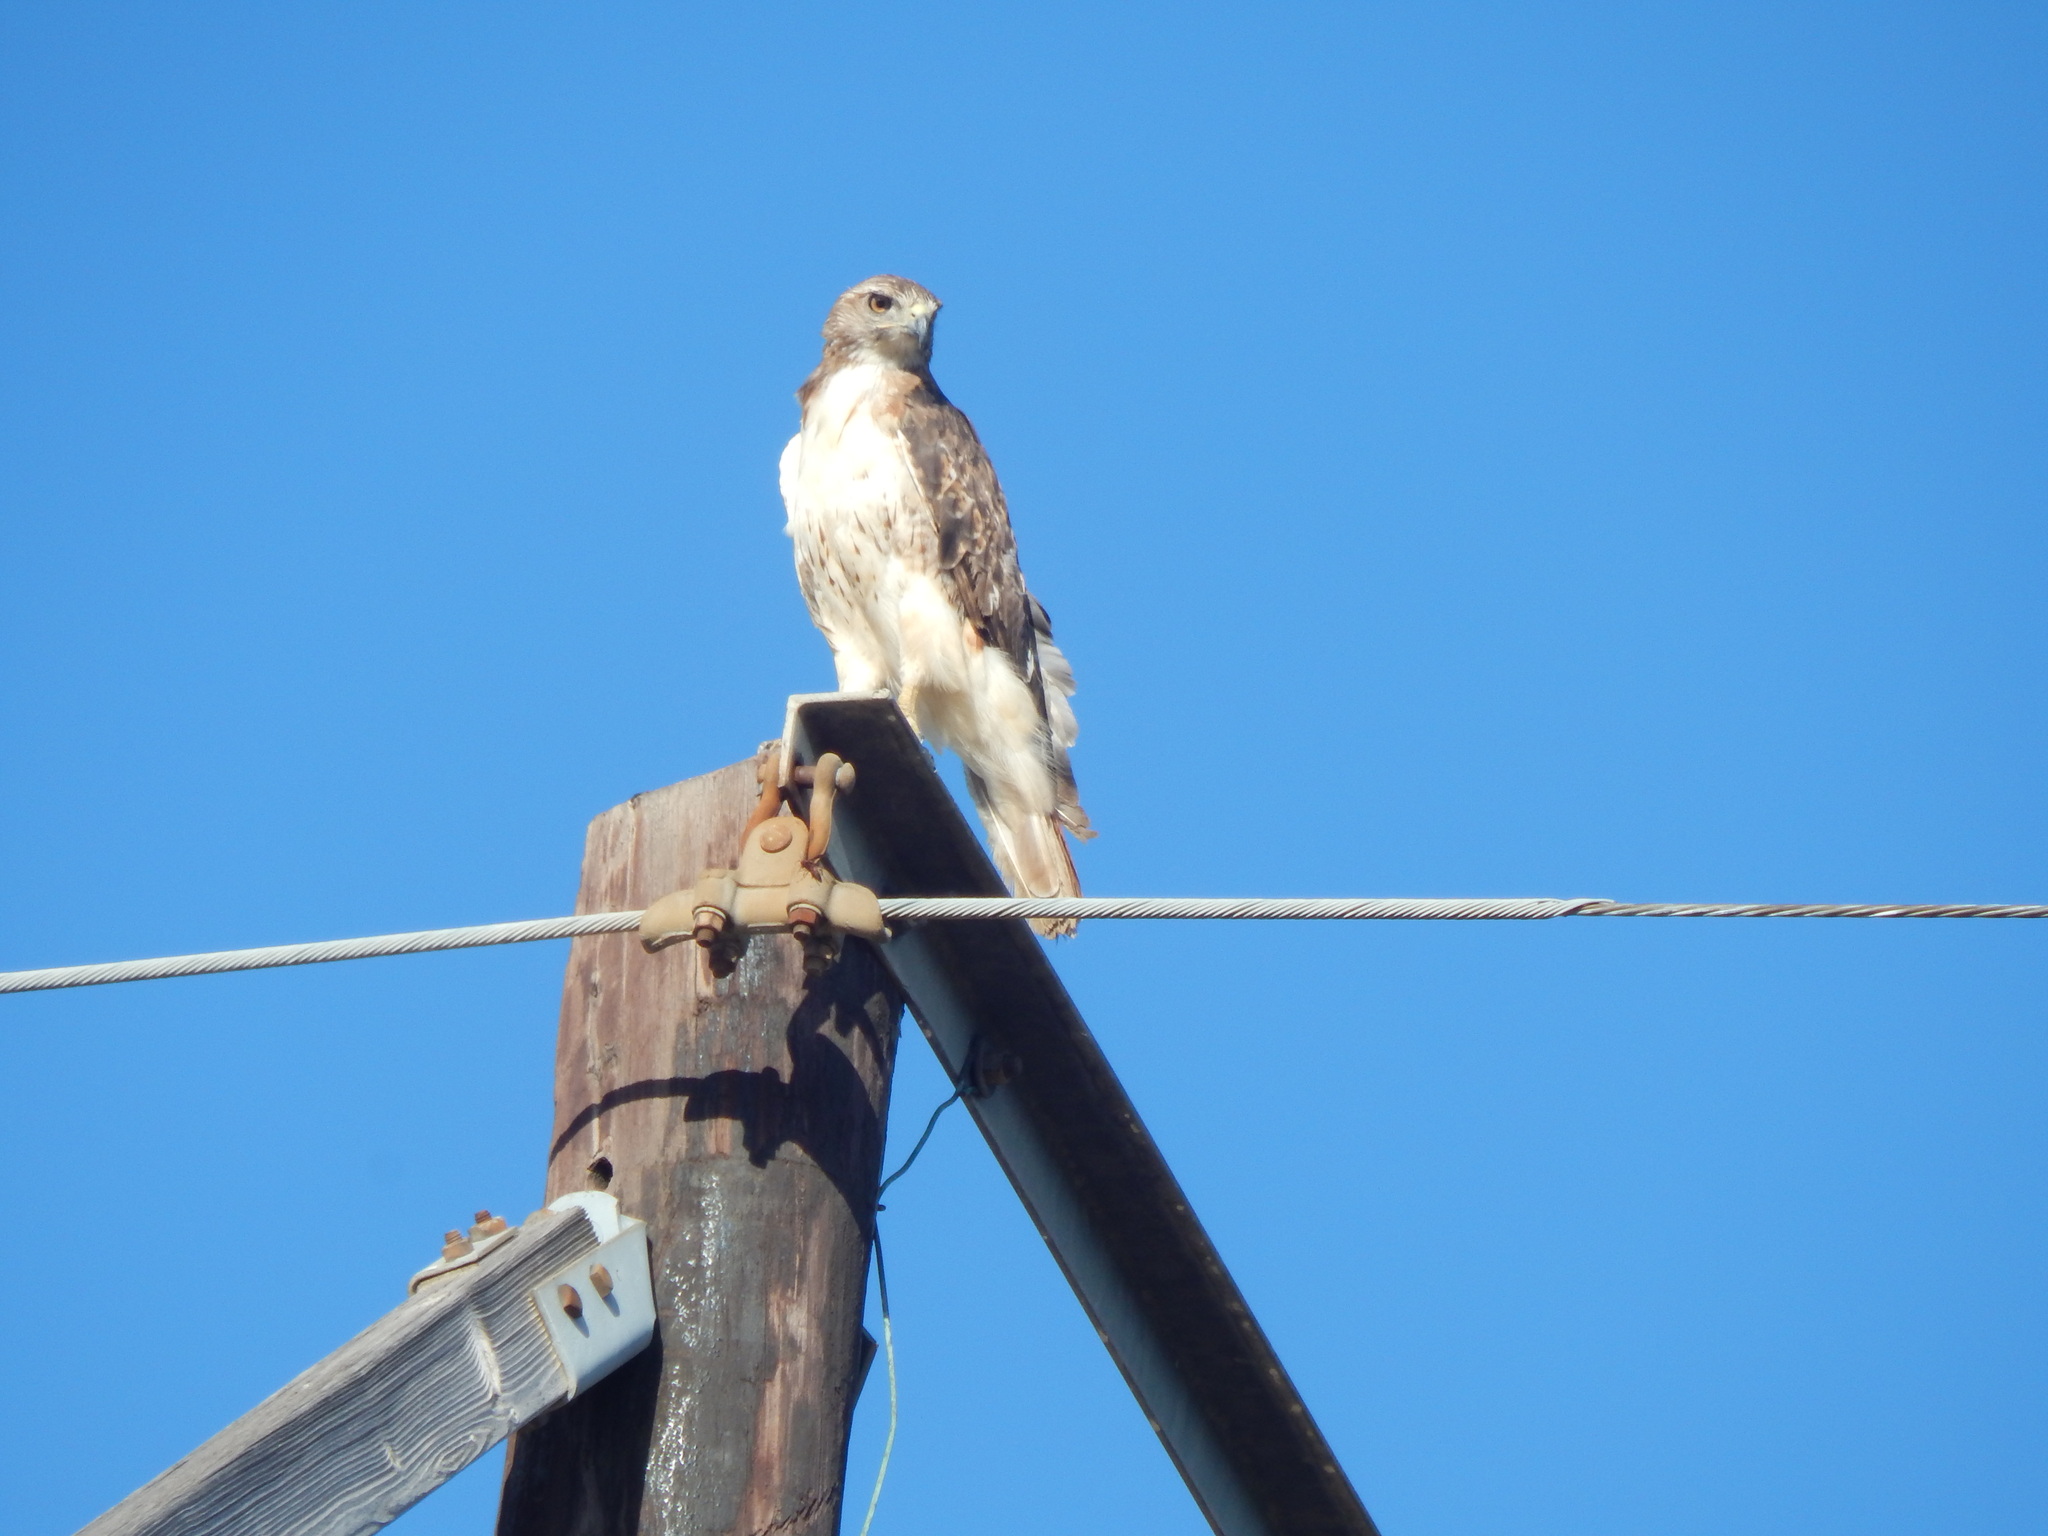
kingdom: Animalia
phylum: Chordata
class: Aves
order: Accipitriformes
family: Accipitridae
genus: Buteo
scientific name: Buteo jamaicensis
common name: Red-tailed hawk
